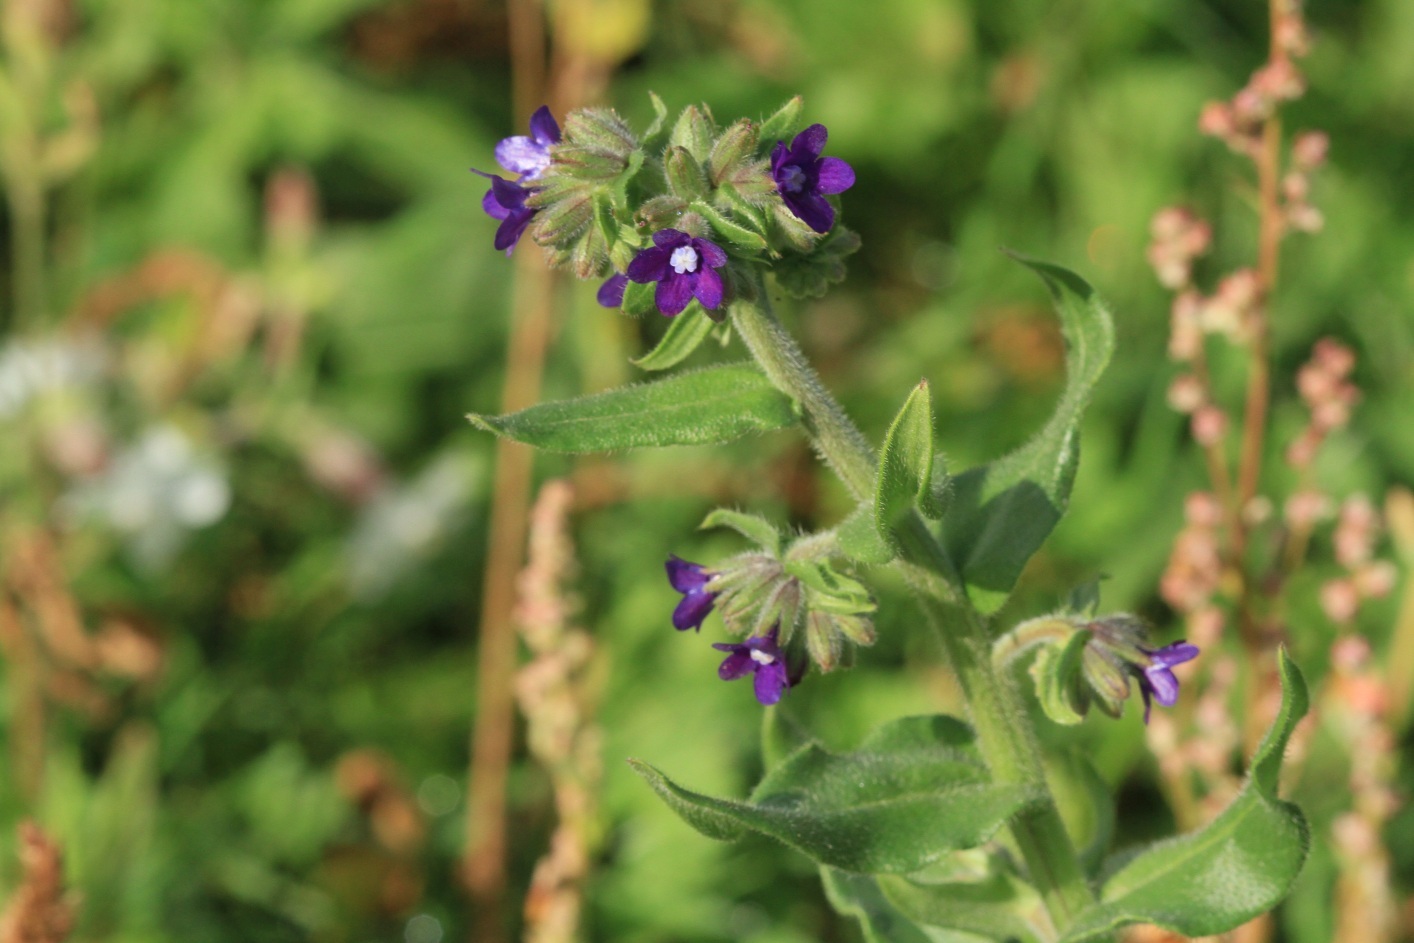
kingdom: Plantae
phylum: Tracheophyta
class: Magnoliopsida
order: Boraginales
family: Boraginaceae
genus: Anchusa
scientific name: Anchusa officinalis
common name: Alkanet
